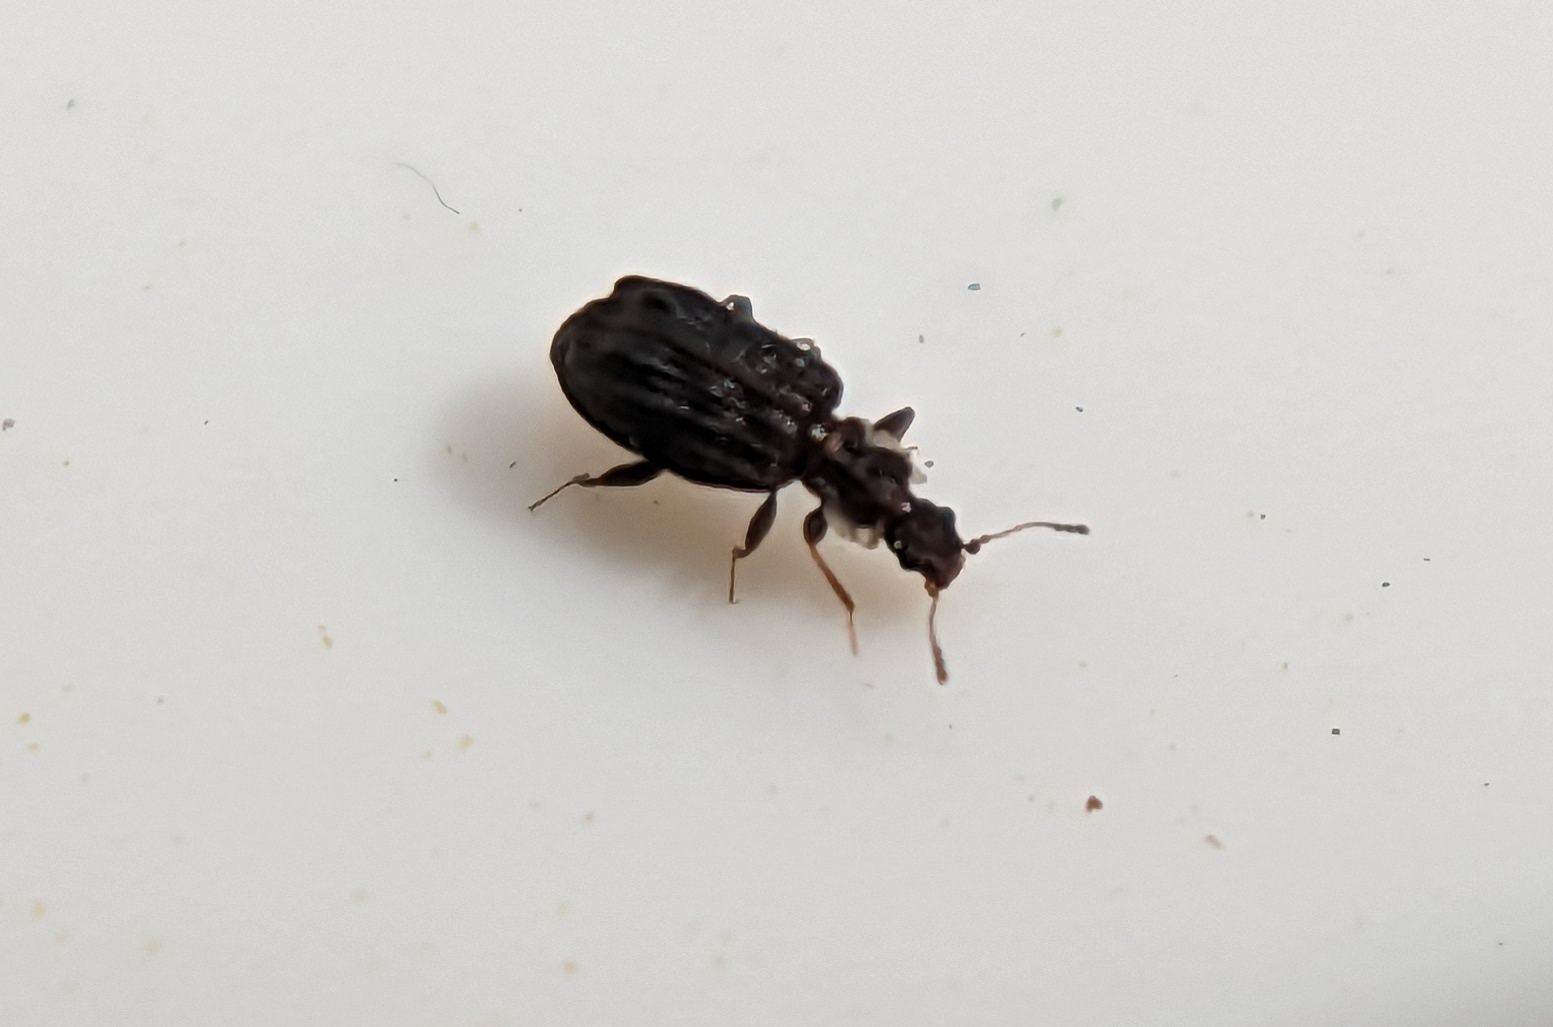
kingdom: Animalia
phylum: Arthropoda
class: Insecta
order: Coleoptera
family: Latridiidae
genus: Cartodere
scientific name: Cartodere nodifer
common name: Humpbacked minute scavenger beetle
